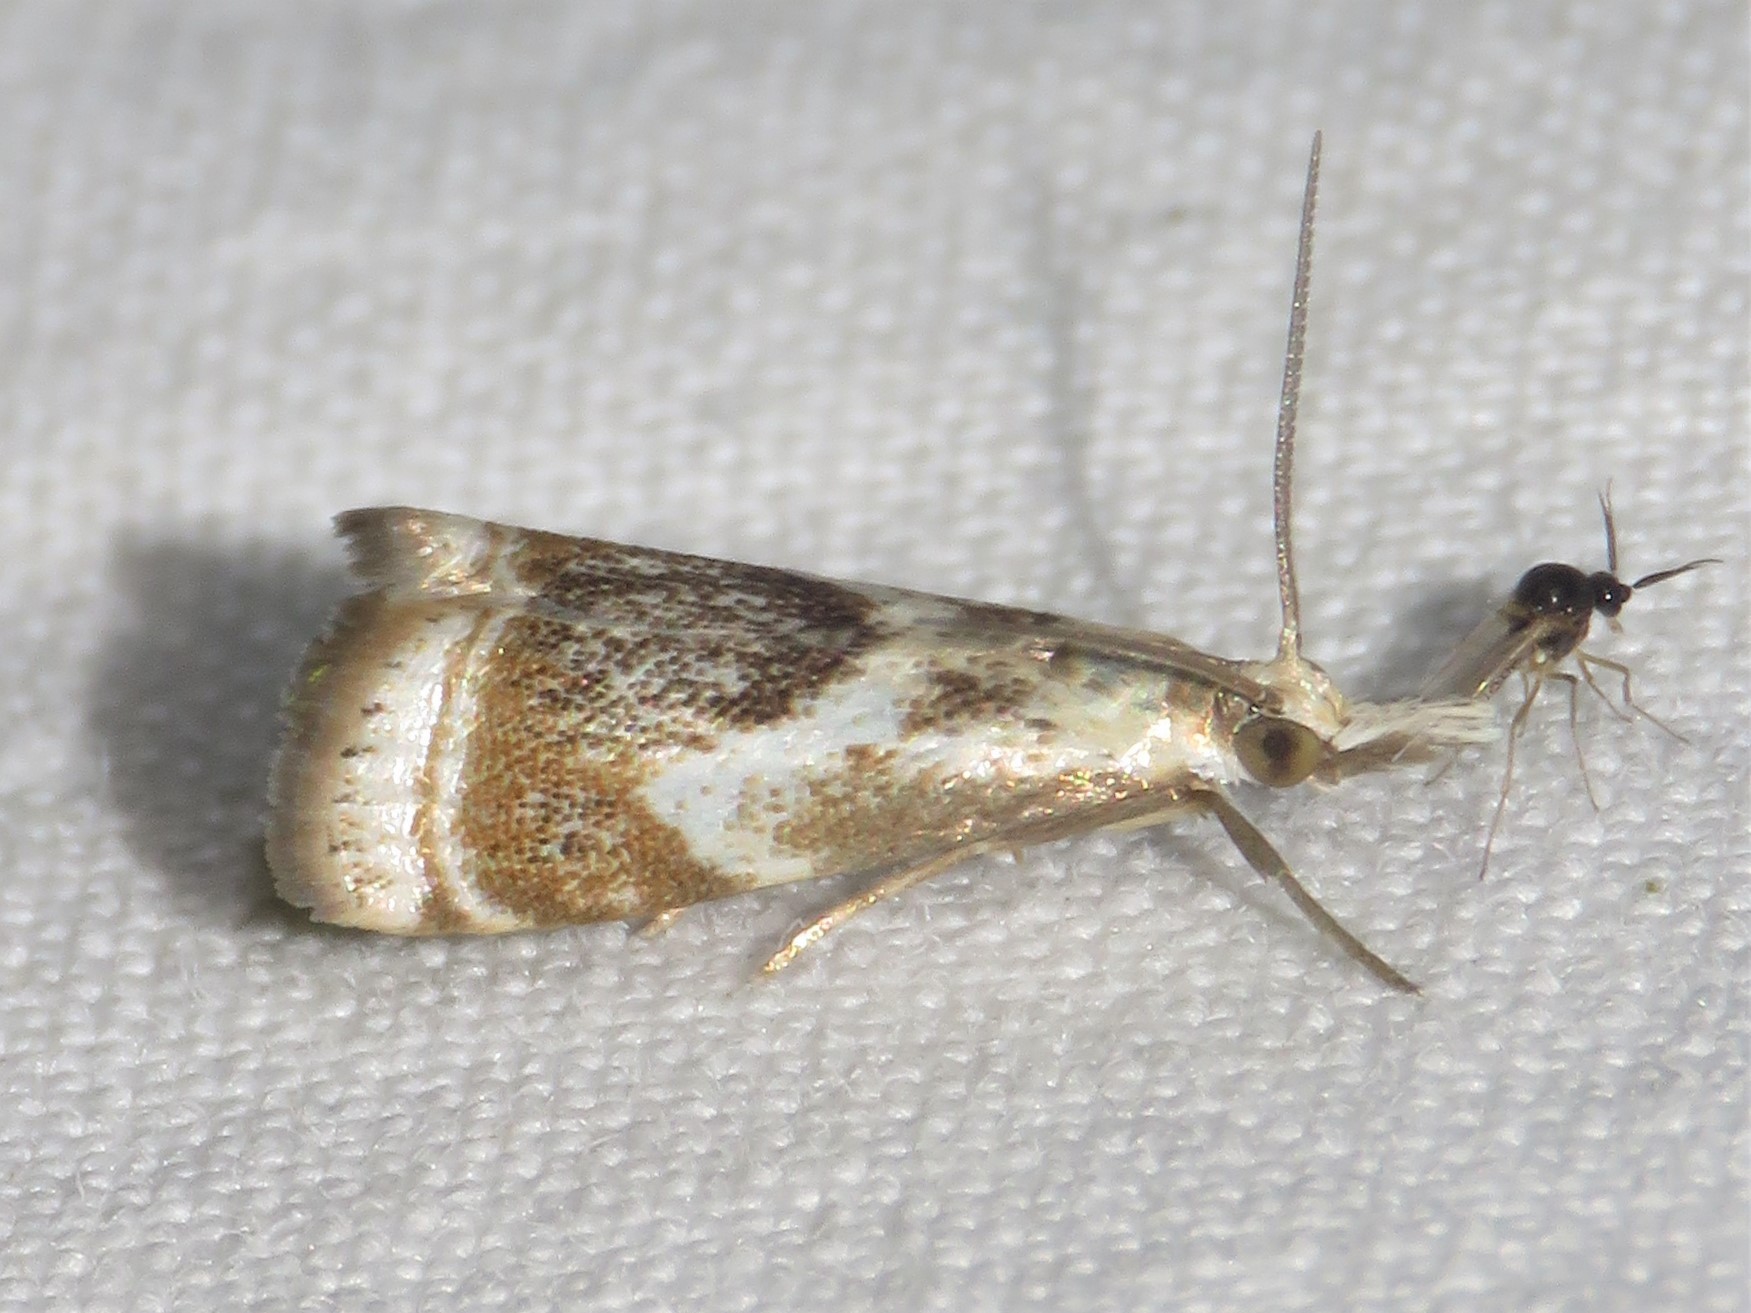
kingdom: Animalia
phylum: Arthropoda
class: Insecta
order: Lepidoptera
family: Crambidae
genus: Microcrambus
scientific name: Microcrambus elegans
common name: Elegant grass-veneer
